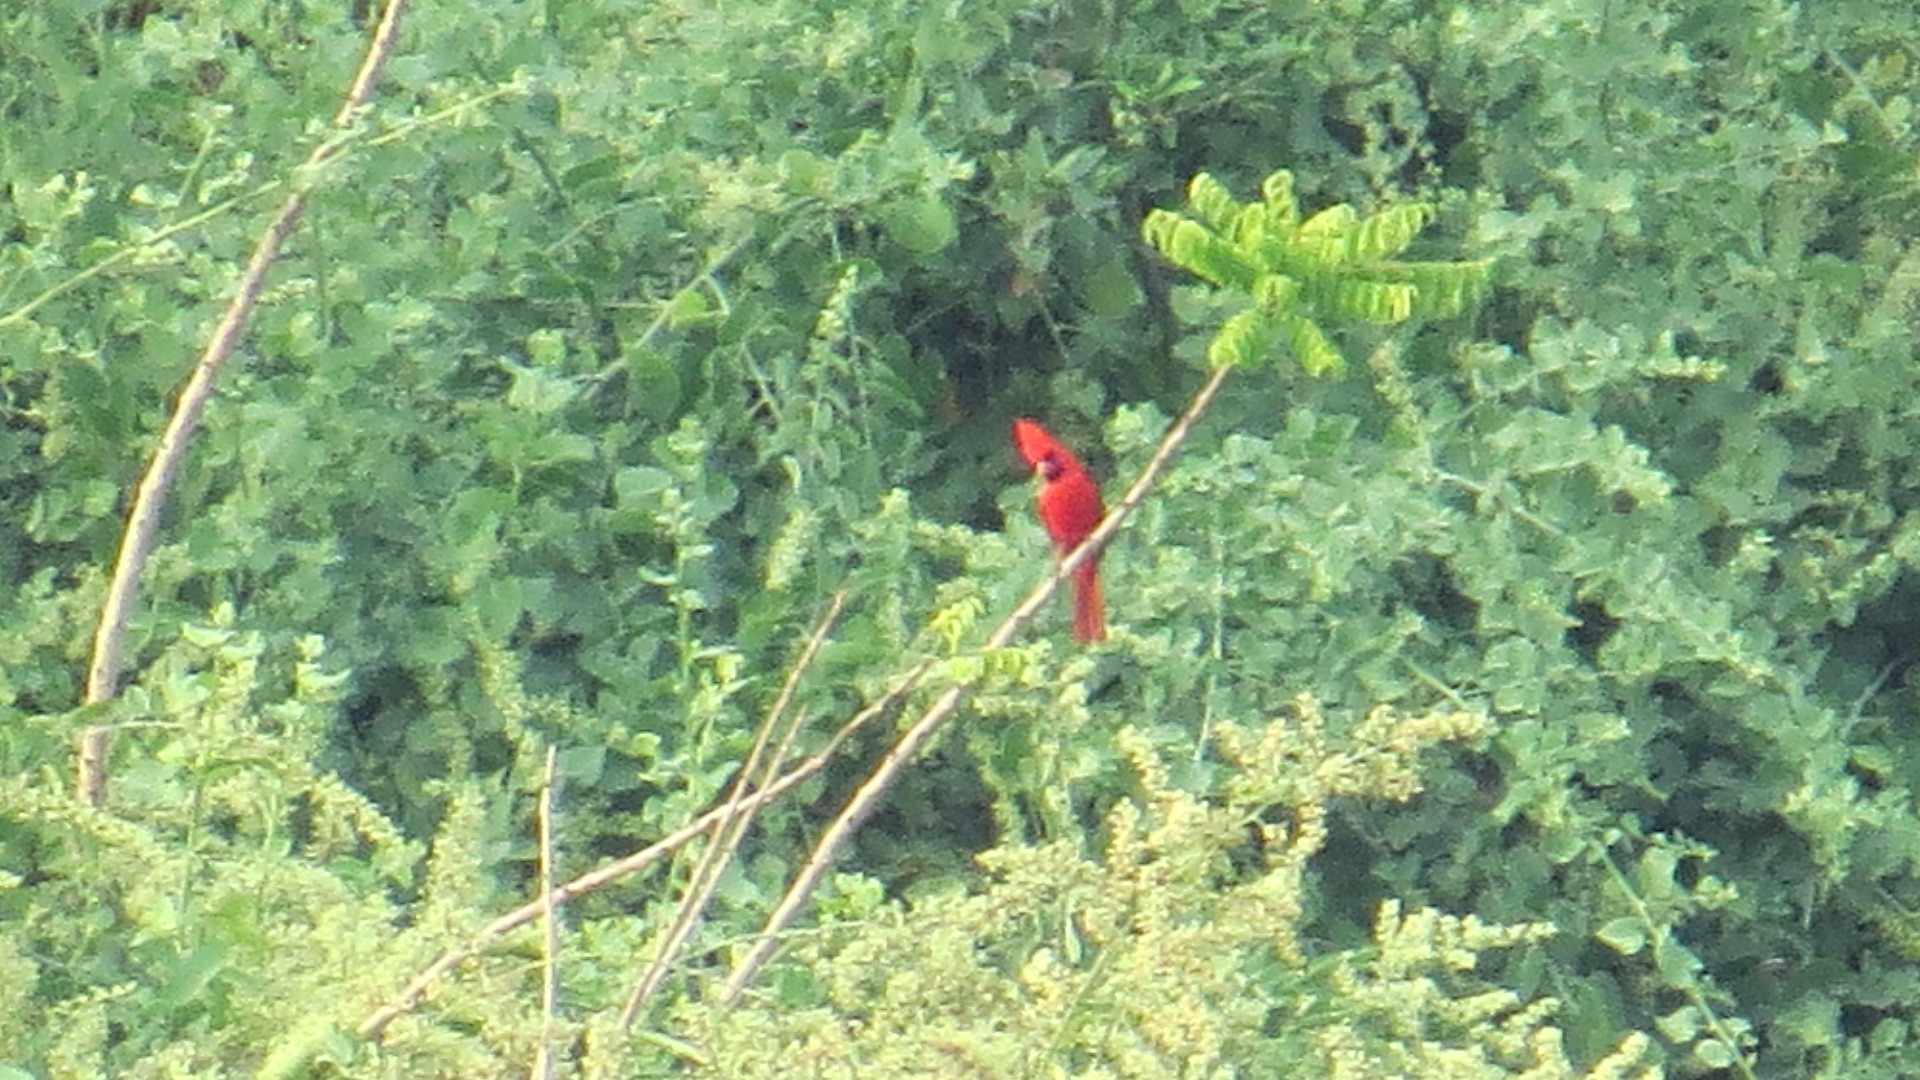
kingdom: Animalia
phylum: Chordata
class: Aves
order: Passeriformes
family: Cardinalidae
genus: Cardinalis
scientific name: Cardinalis cardinalis
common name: Northern cardinal
